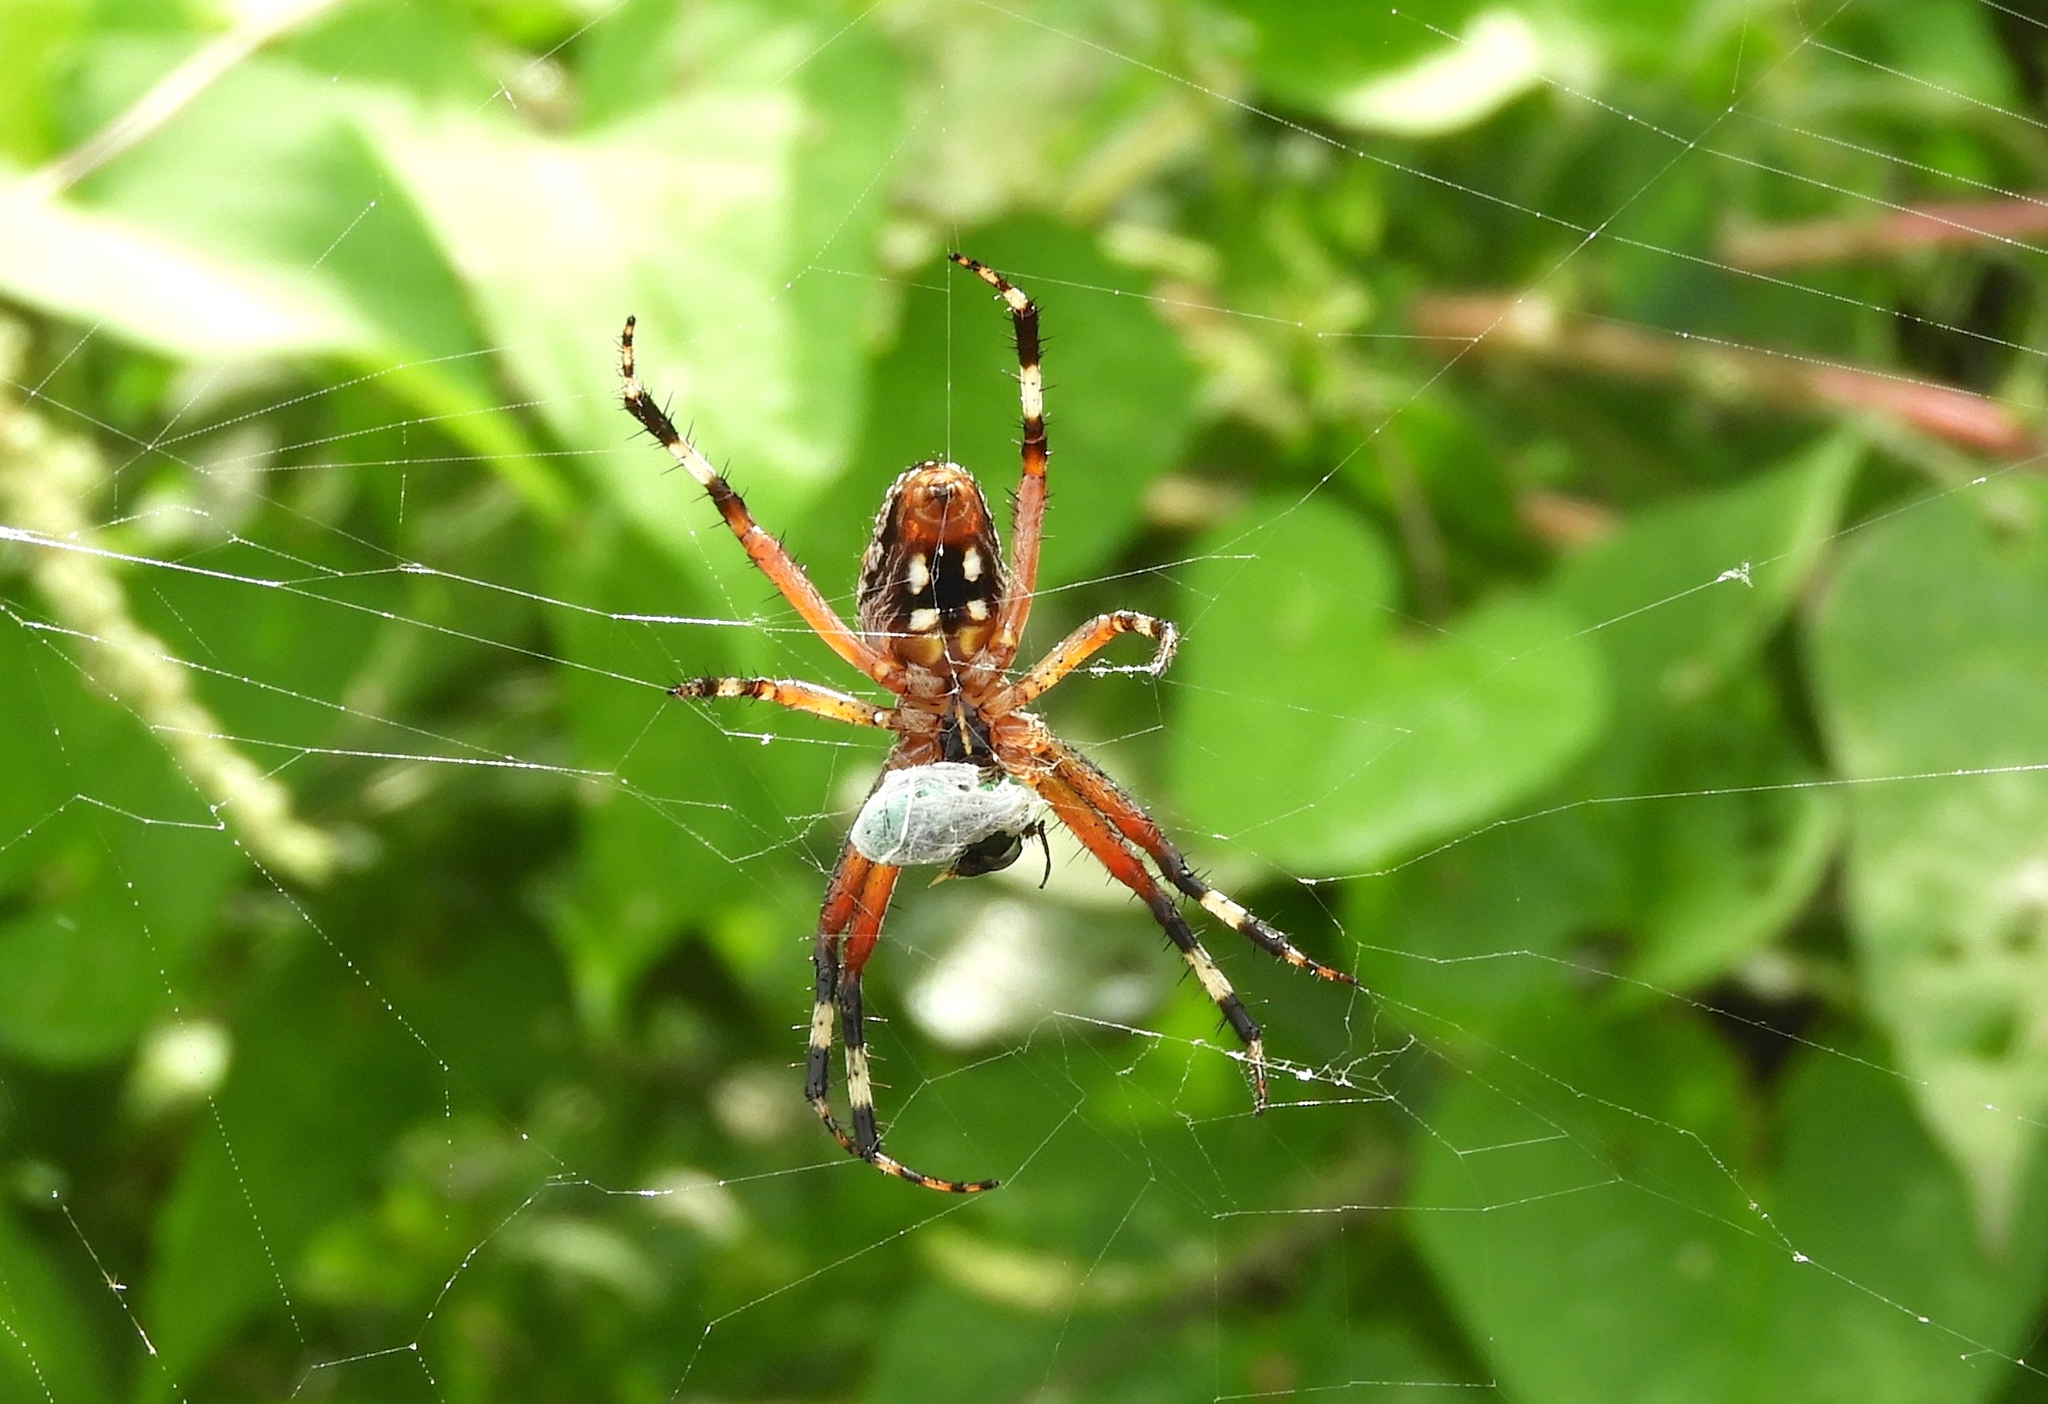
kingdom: Animalia
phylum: Arthropoda
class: Arachnida
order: Araneae
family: Araneidae
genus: Neoscona
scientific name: Neoscona
